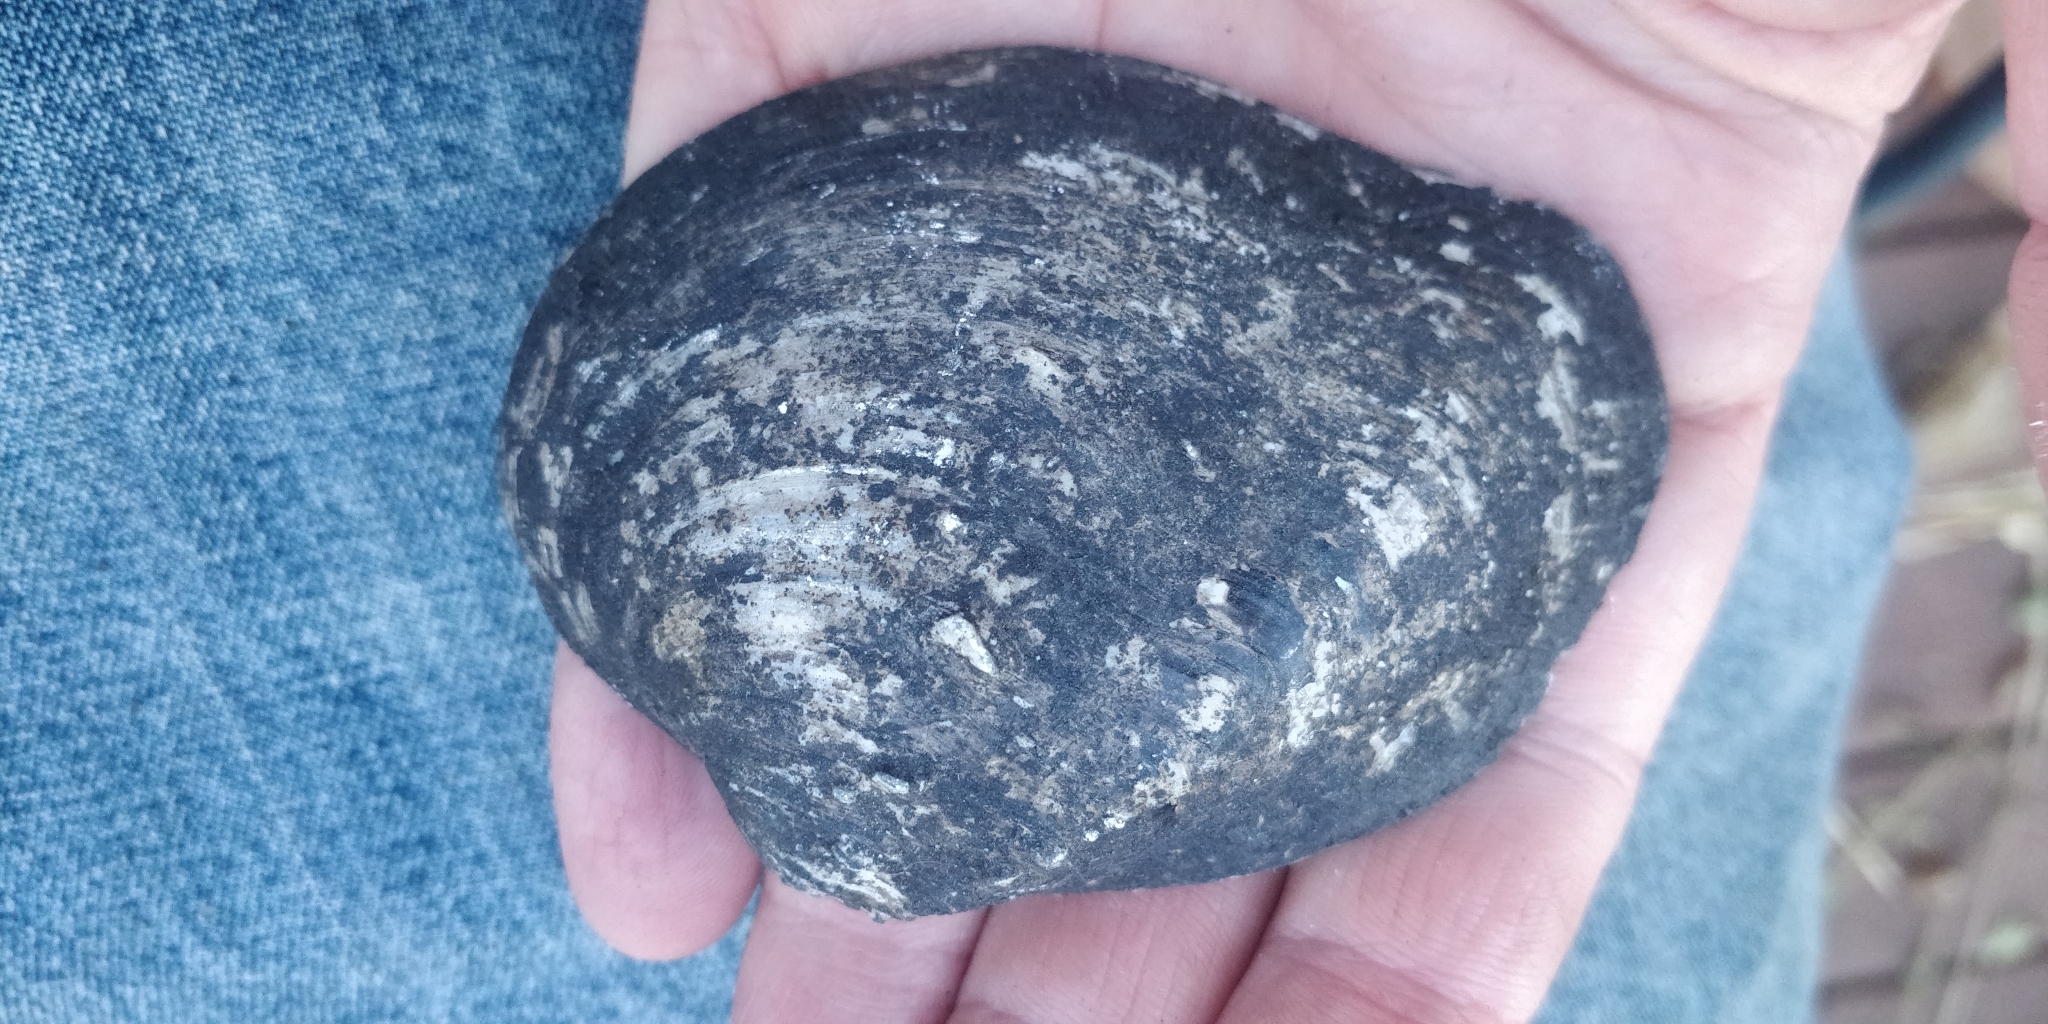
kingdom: Animalia
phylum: Mollusca
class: Bivalvia
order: Unionida
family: Unionidae
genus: Quadrula
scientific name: Quadrula quadrula
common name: Mapleleaf
